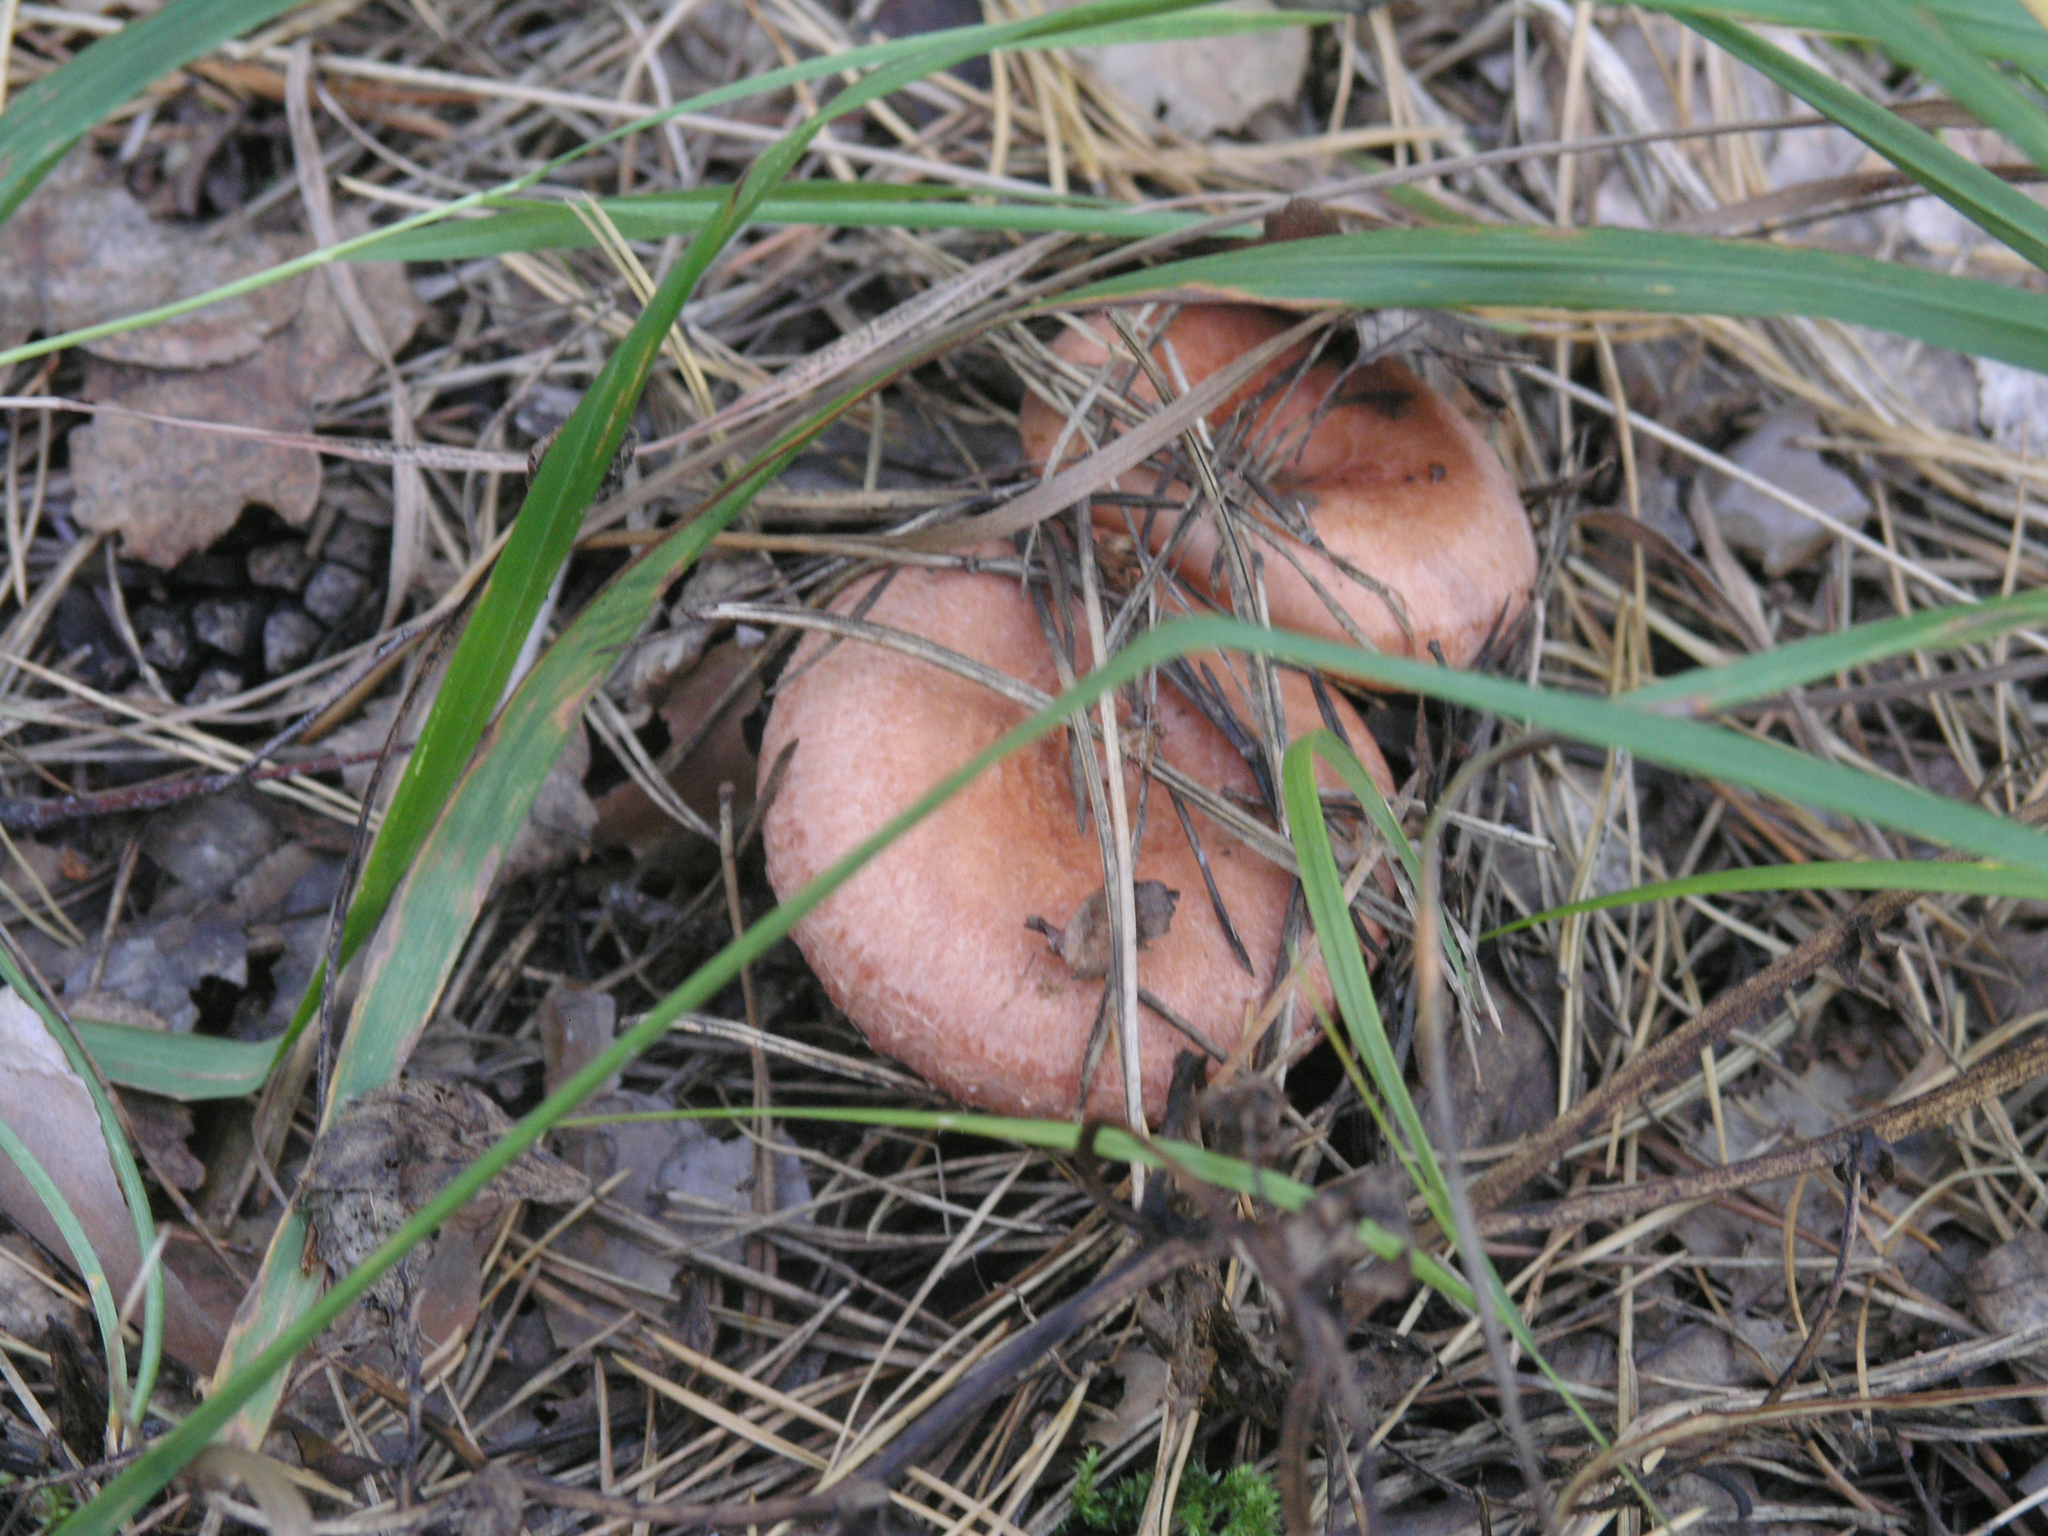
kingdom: Fungi
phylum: Basidiomycota
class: Agaricomycetes
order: Russulales
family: Russulaceae
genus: Lactarius
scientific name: Lactarius torminosus
